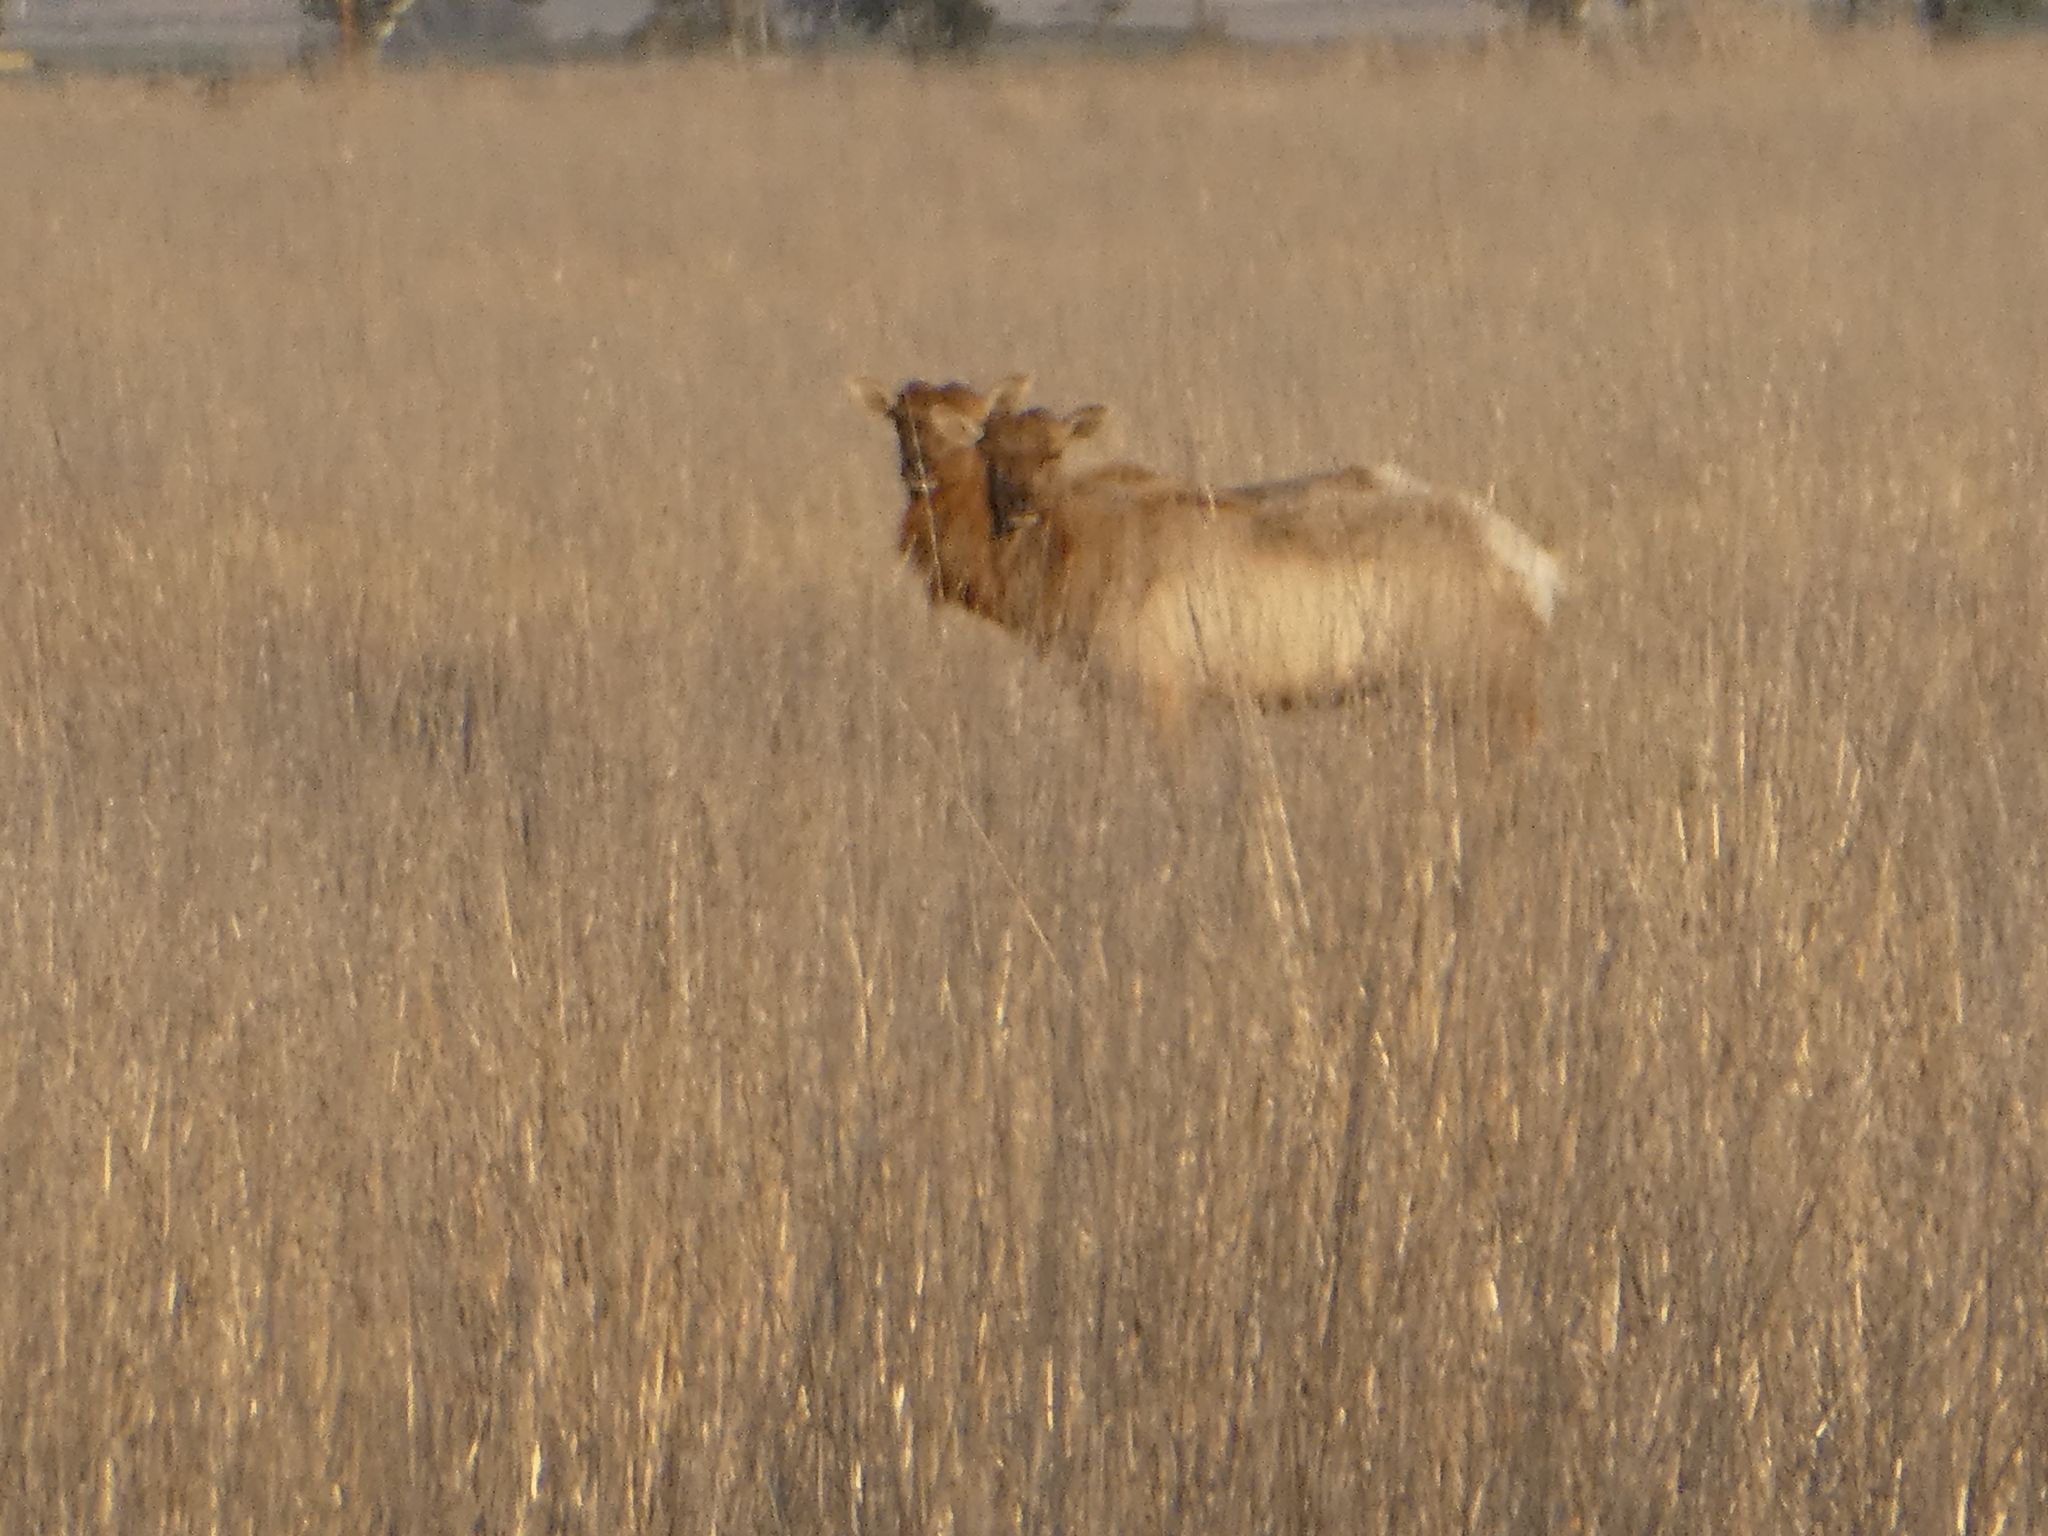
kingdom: Animalia
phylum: Chordata
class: Mammalia
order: Artiodactyla
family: Cervidae
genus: Cervus
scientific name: Cervus elaphus
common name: Red deer
